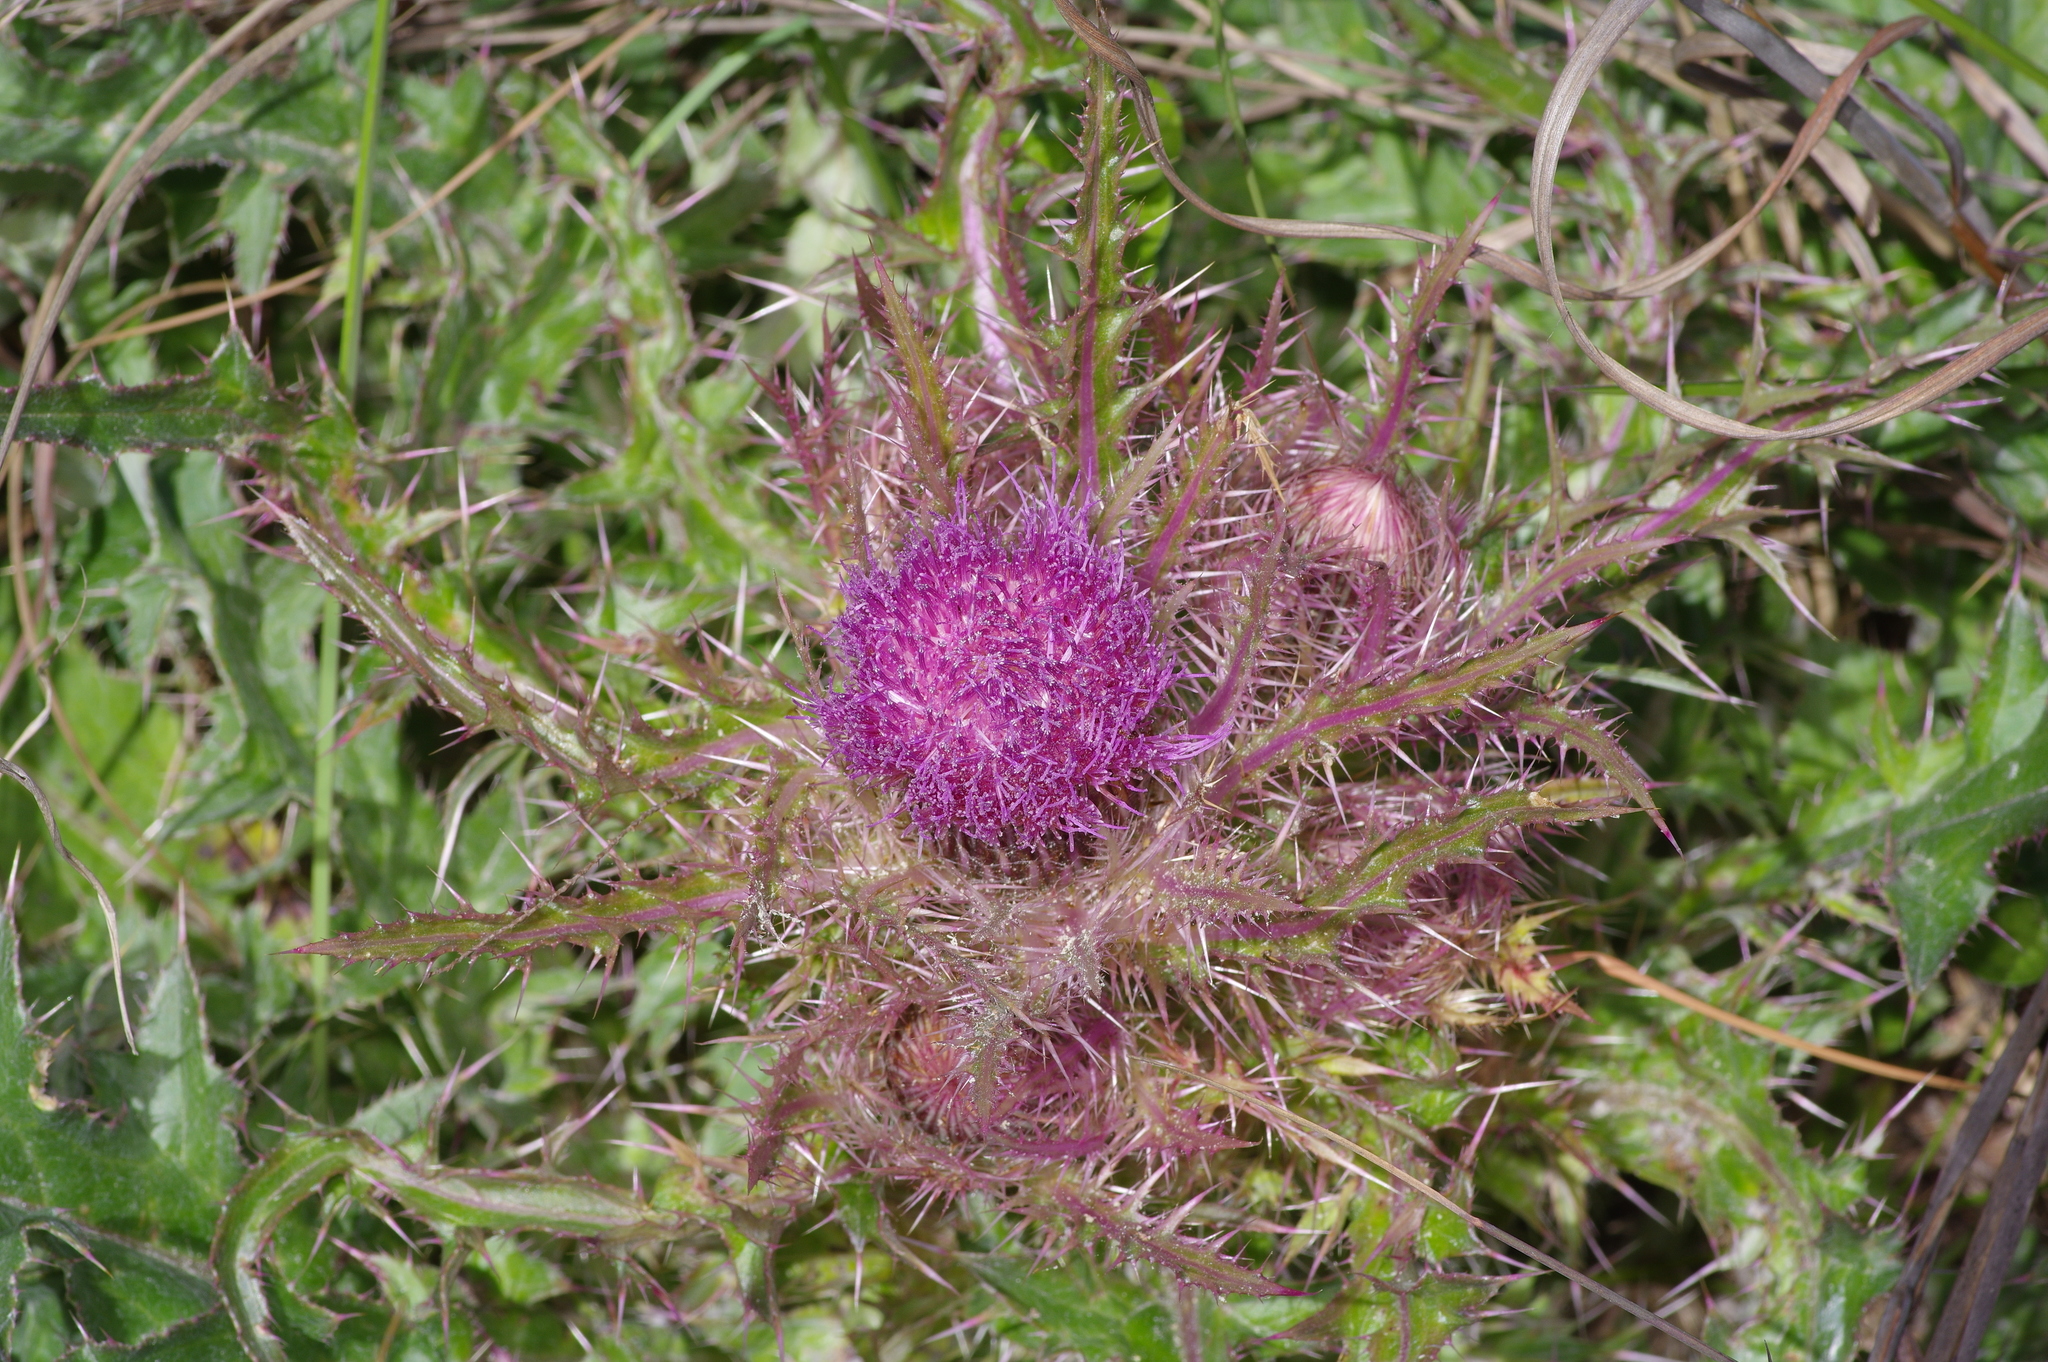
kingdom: Plantae
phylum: Tracheophyta
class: Magnoliopsida
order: Asterales
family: Asteraceae
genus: Cirsium
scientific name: Cirsium horridulum
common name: Bristly thistle
